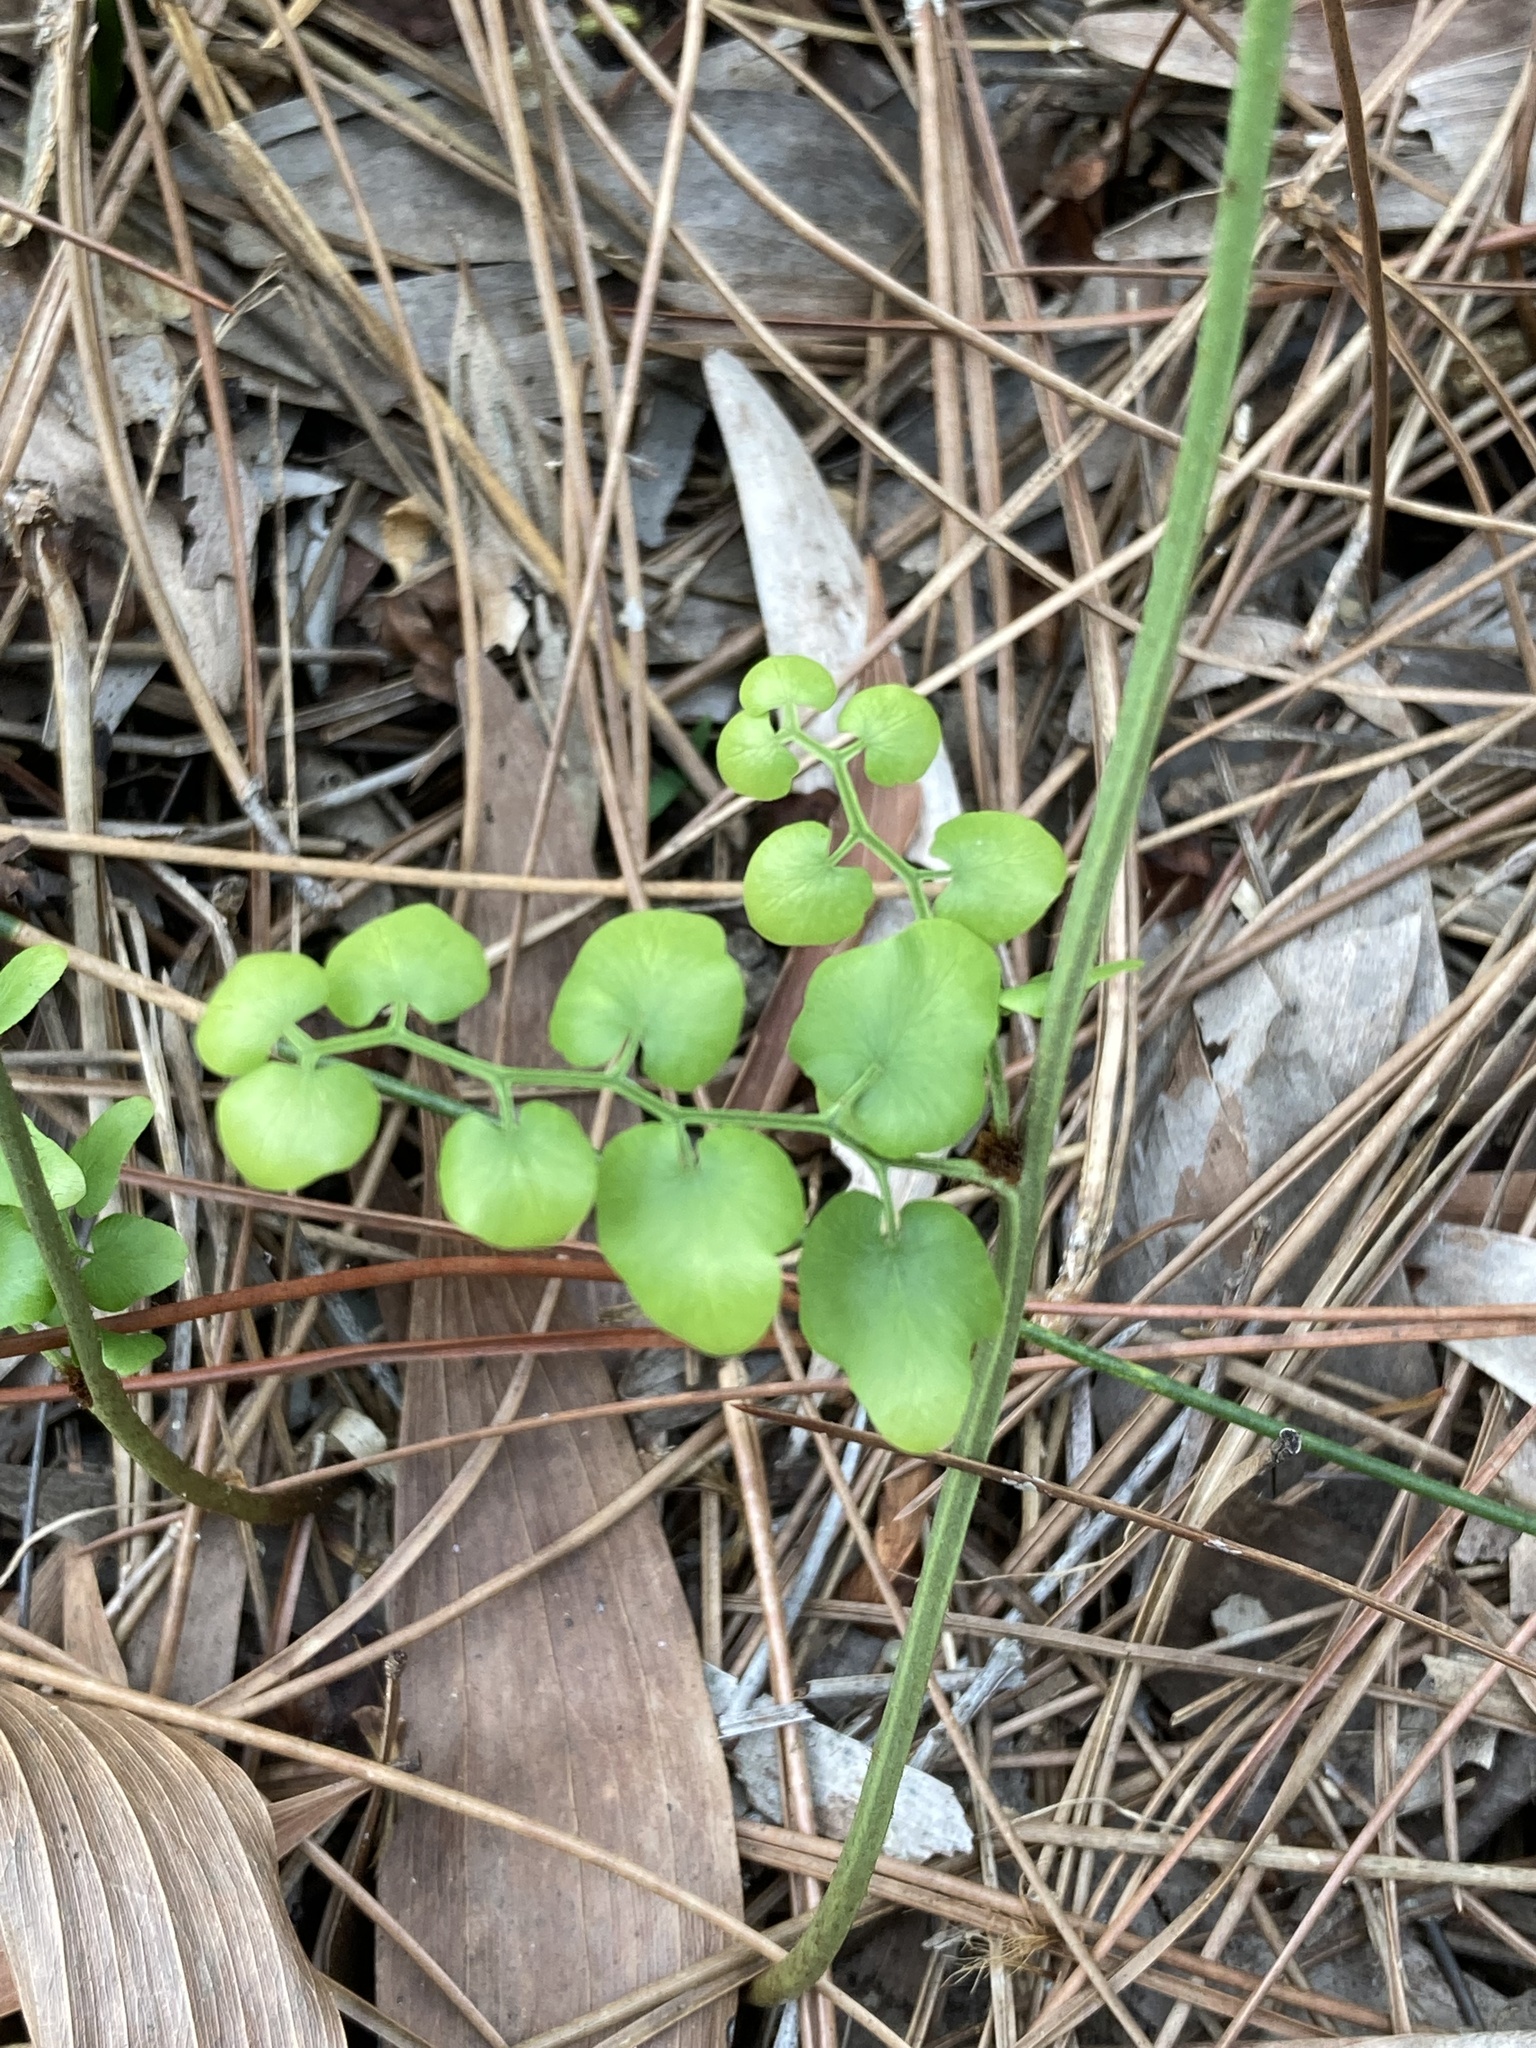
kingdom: Plantae
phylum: Tracheophyta
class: Polypodiopsida
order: Schizaeales
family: Lygodiaceae
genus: Lygodium
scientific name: Lygodium microphyllum
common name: Small-leaf climbing fern
